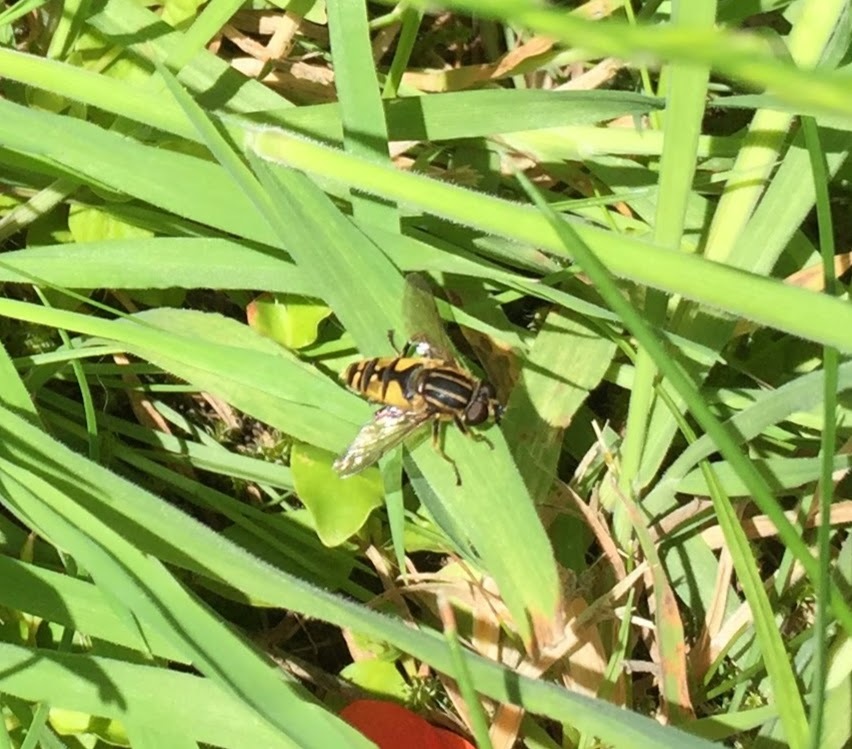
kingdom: Animalia
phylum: Arthropoda
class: Insecta
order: Diptera
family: Syrphidae
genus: Helophilus
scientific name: Helophilus pendulus
